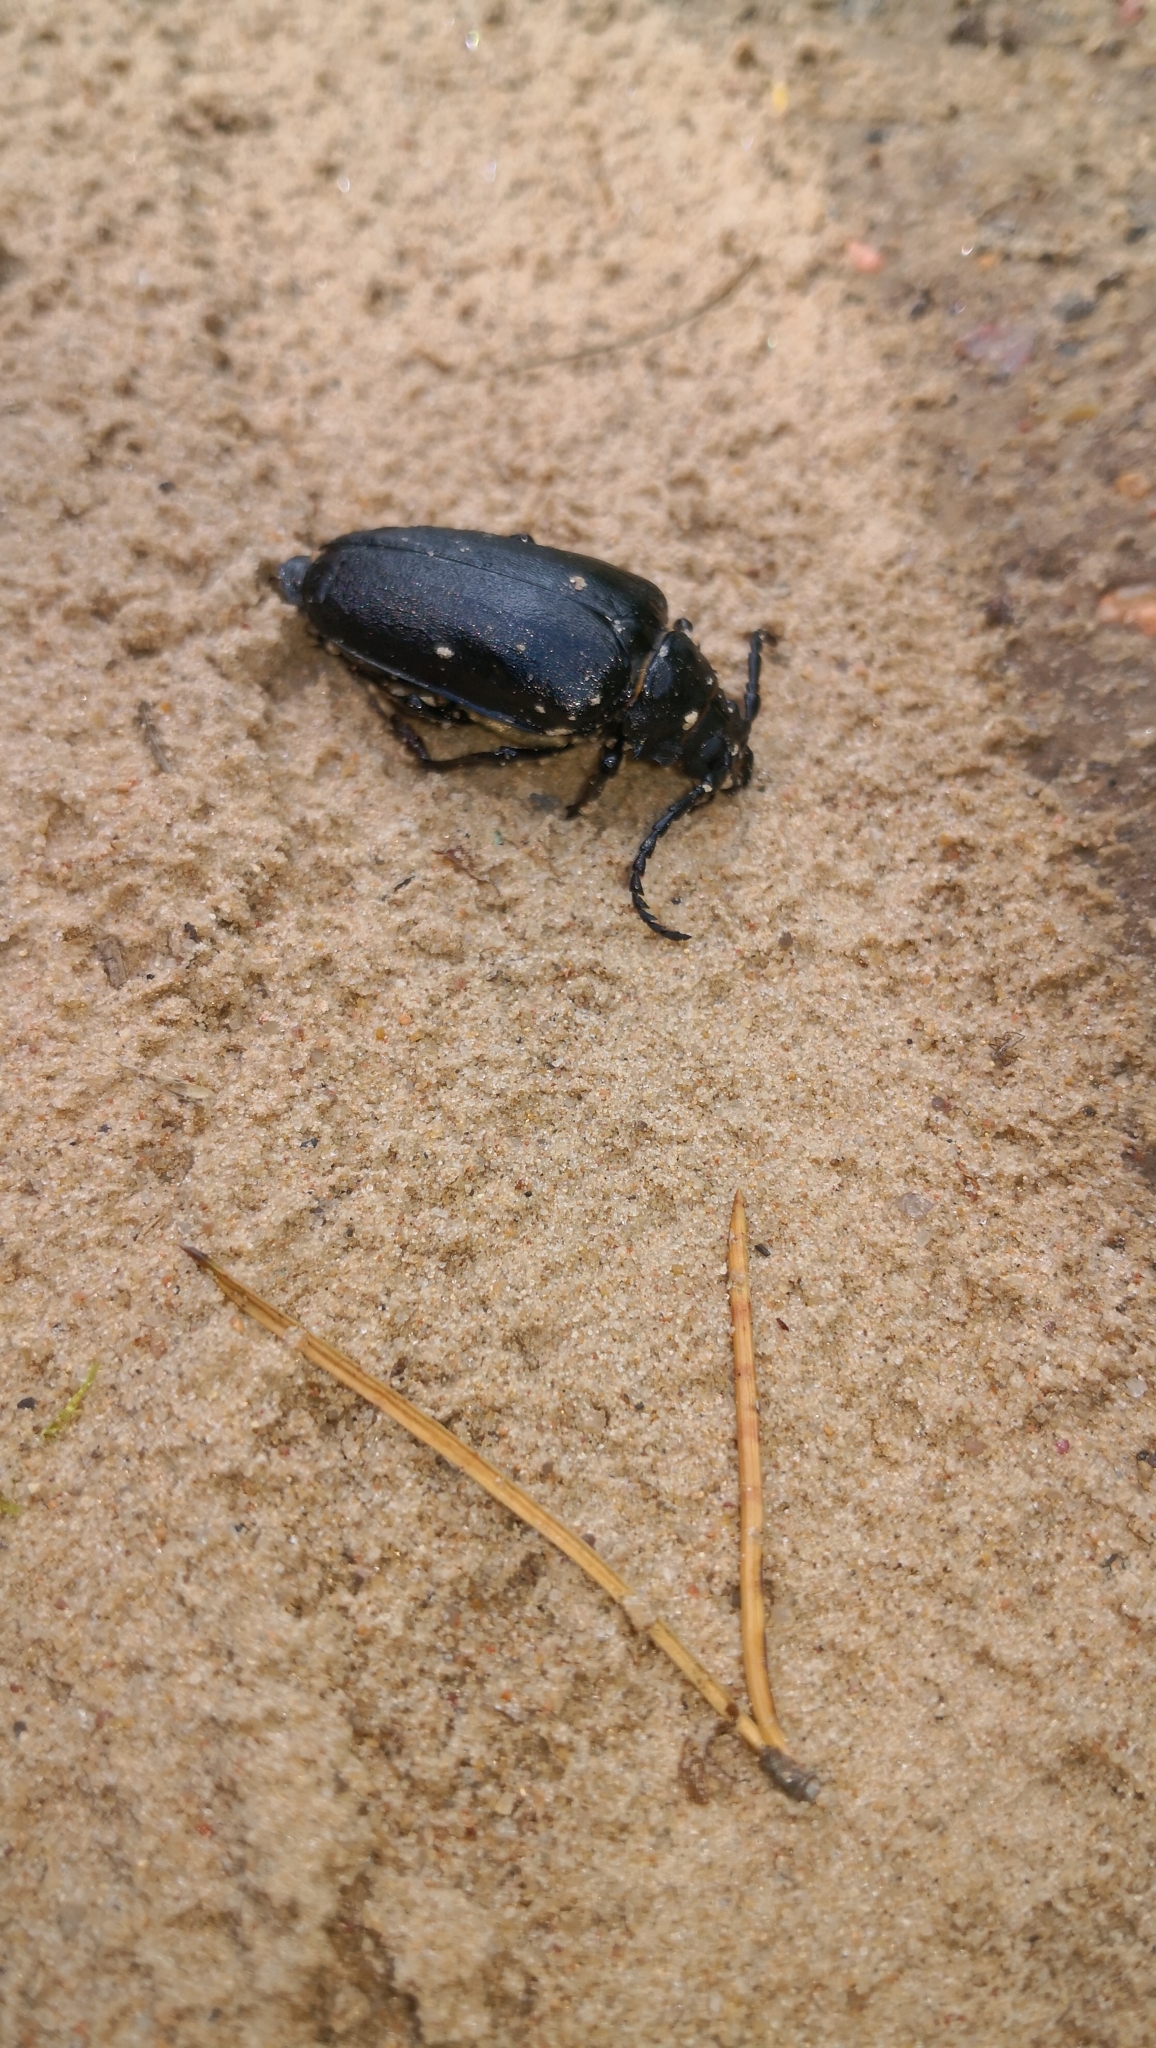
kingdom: Animalia
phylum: Arthropoda
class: Insecta
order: Coleoptera
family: Cerambycidae
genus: Prionus
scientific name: Prionus coriarius
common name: Tanner beetle
